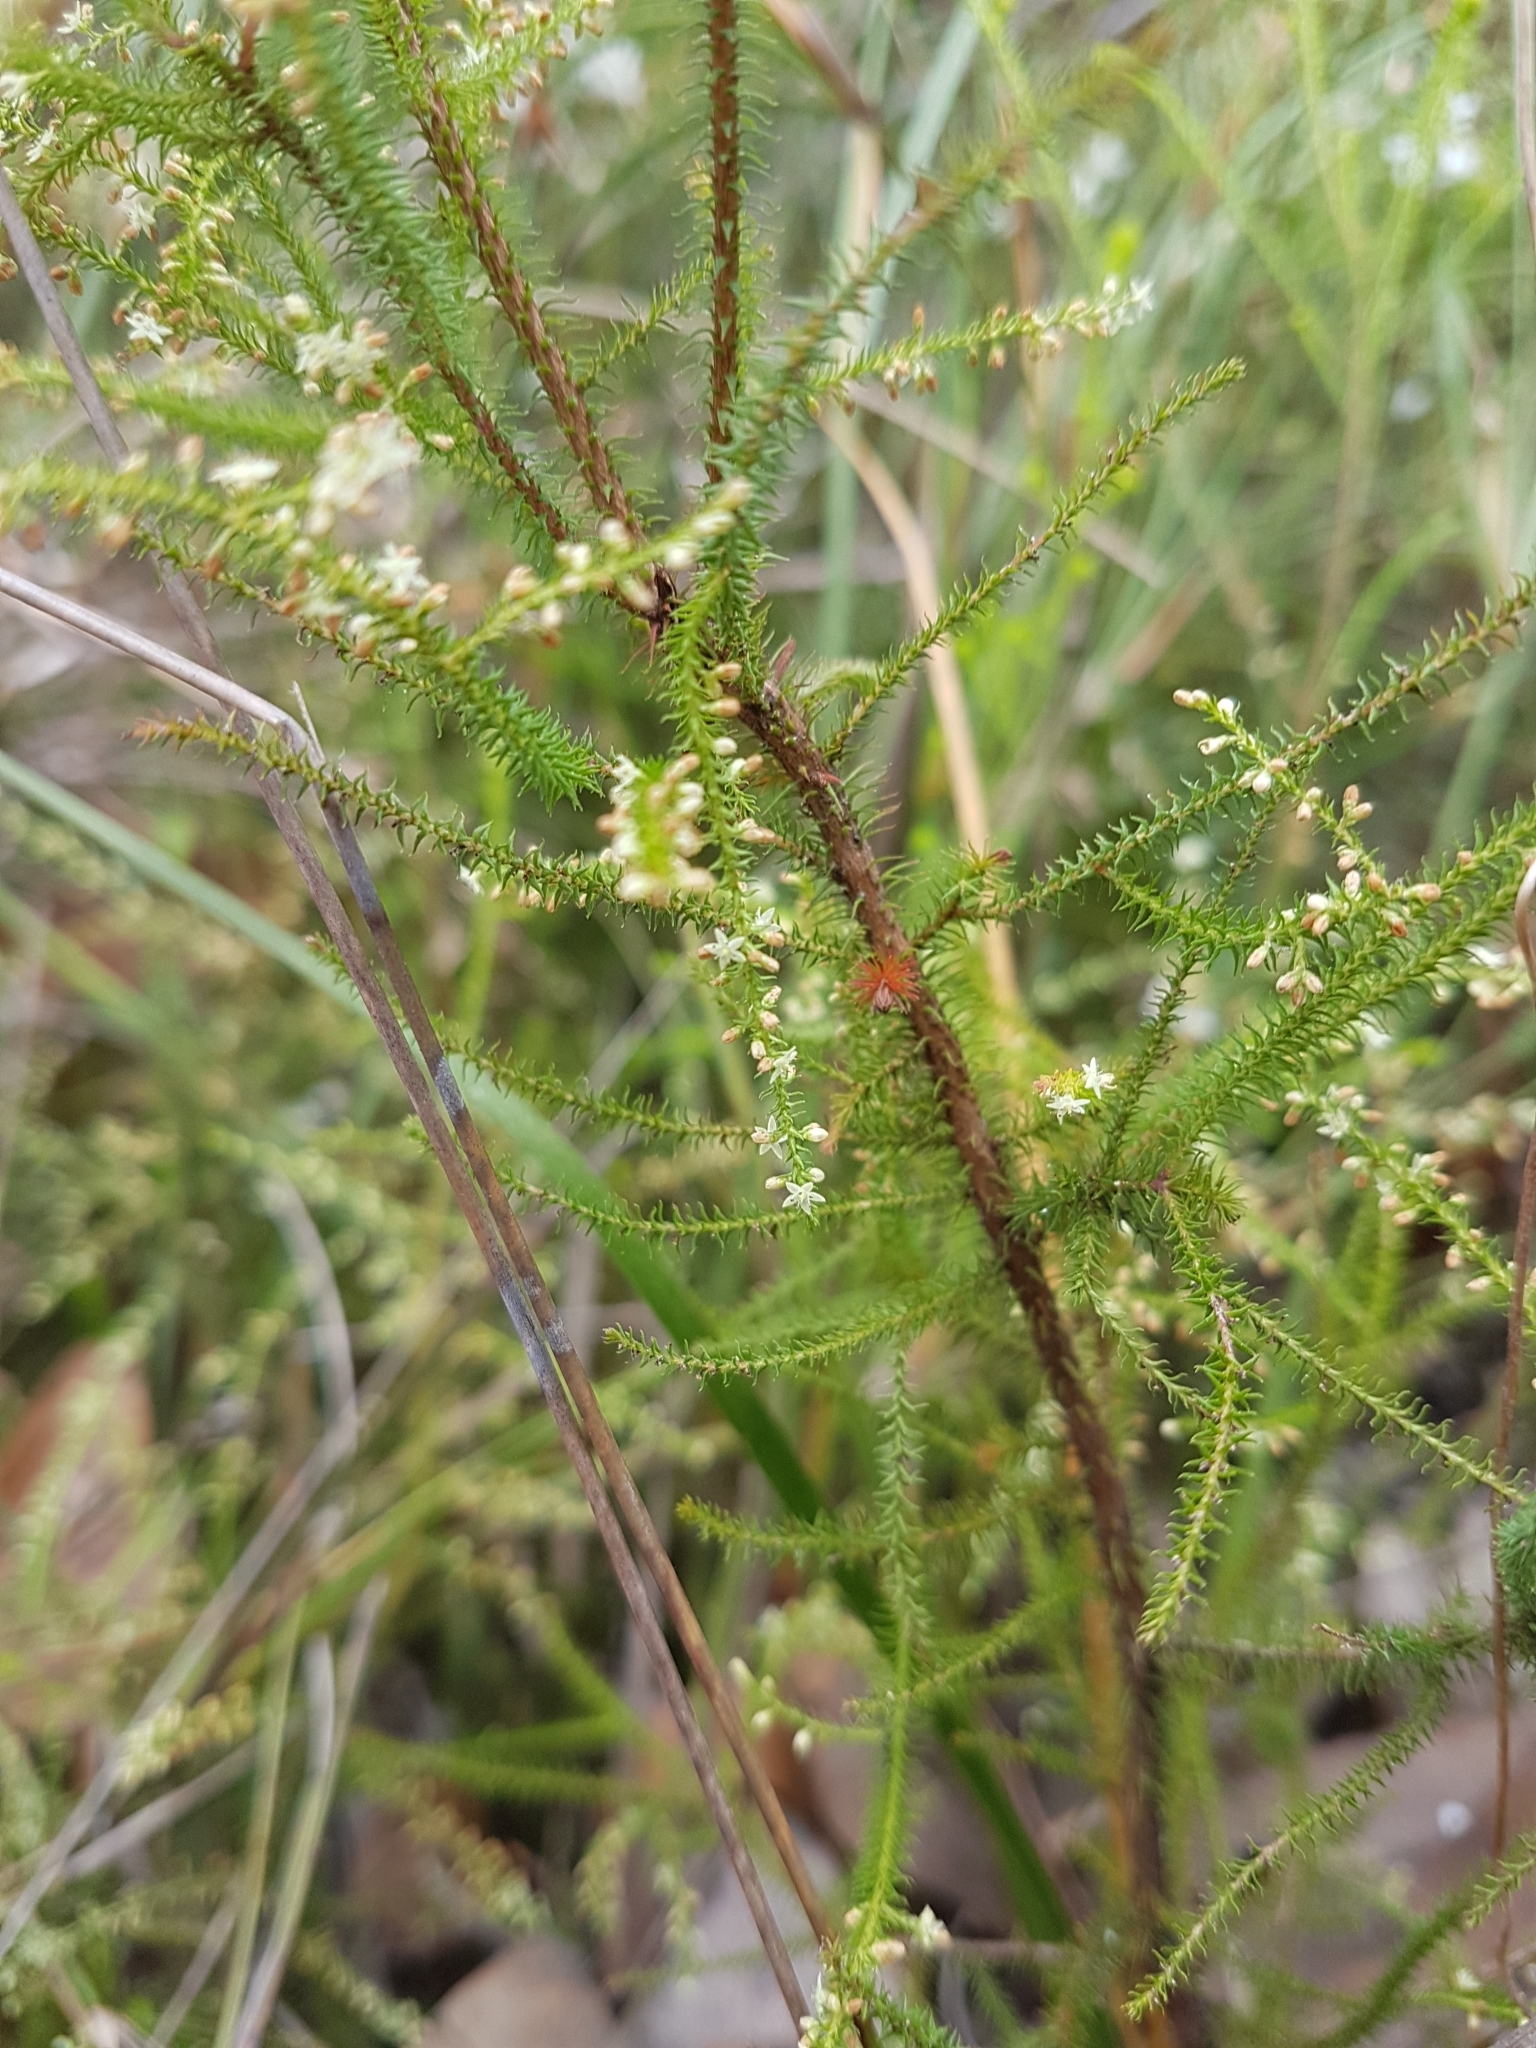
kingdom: Plantae
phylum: Tracheophyta
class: Magnoliopsida
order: Ericales
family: Ericaceae
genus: Dielsiodoxa
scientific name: Dielsiodoxa lycopodioides
